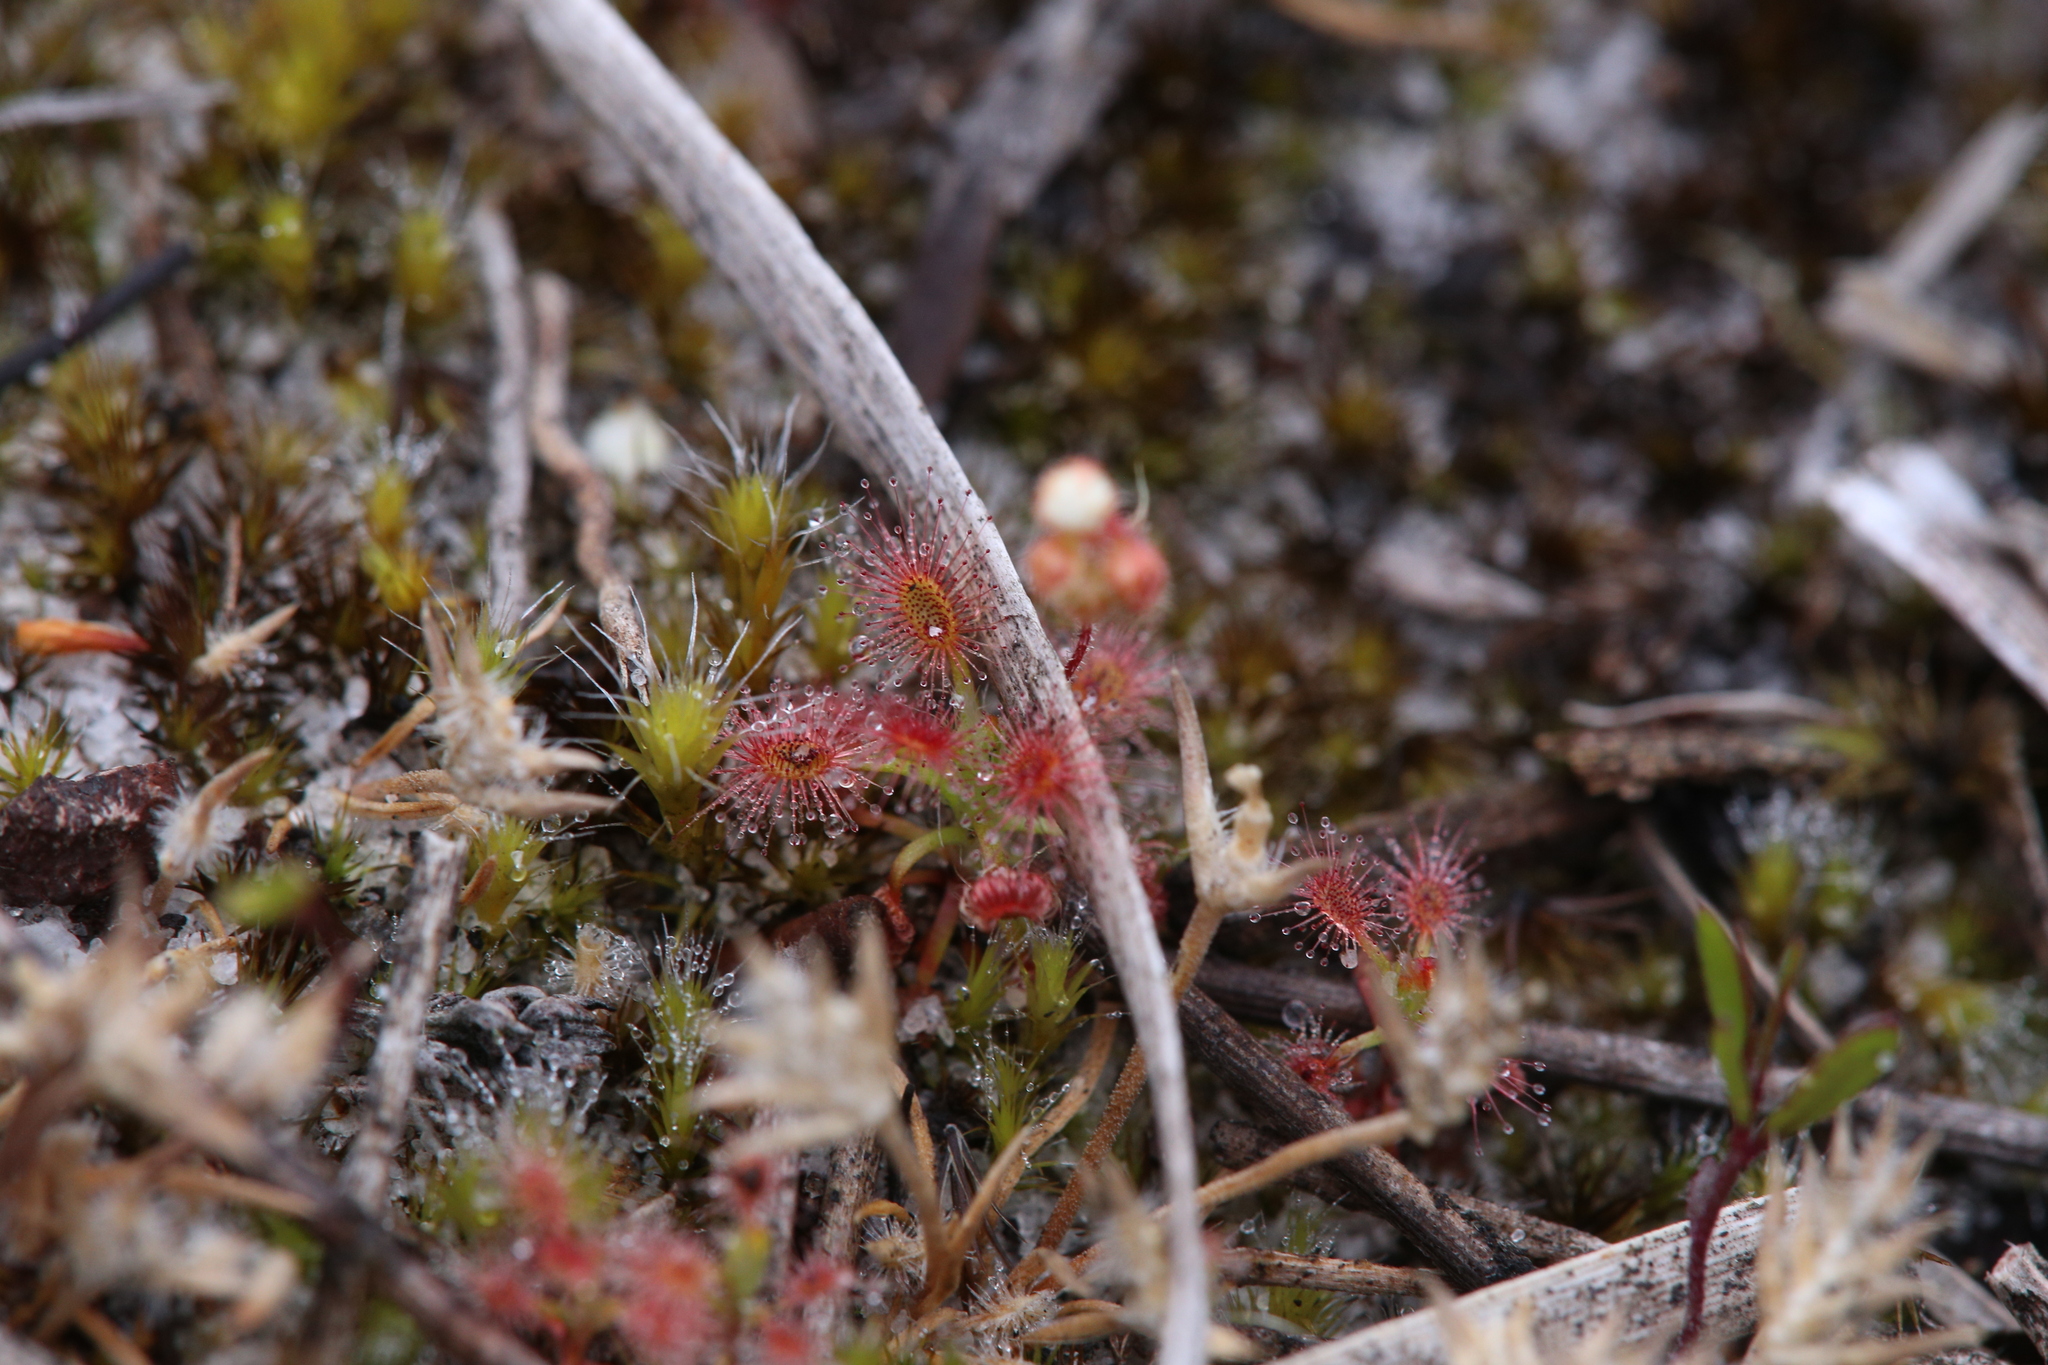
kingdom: Plantae
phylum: Tracheophyta
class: Magnoliopsida
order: Caryophyllales
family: Droseraceae
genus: Drosera
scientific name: Drosera paleacea
